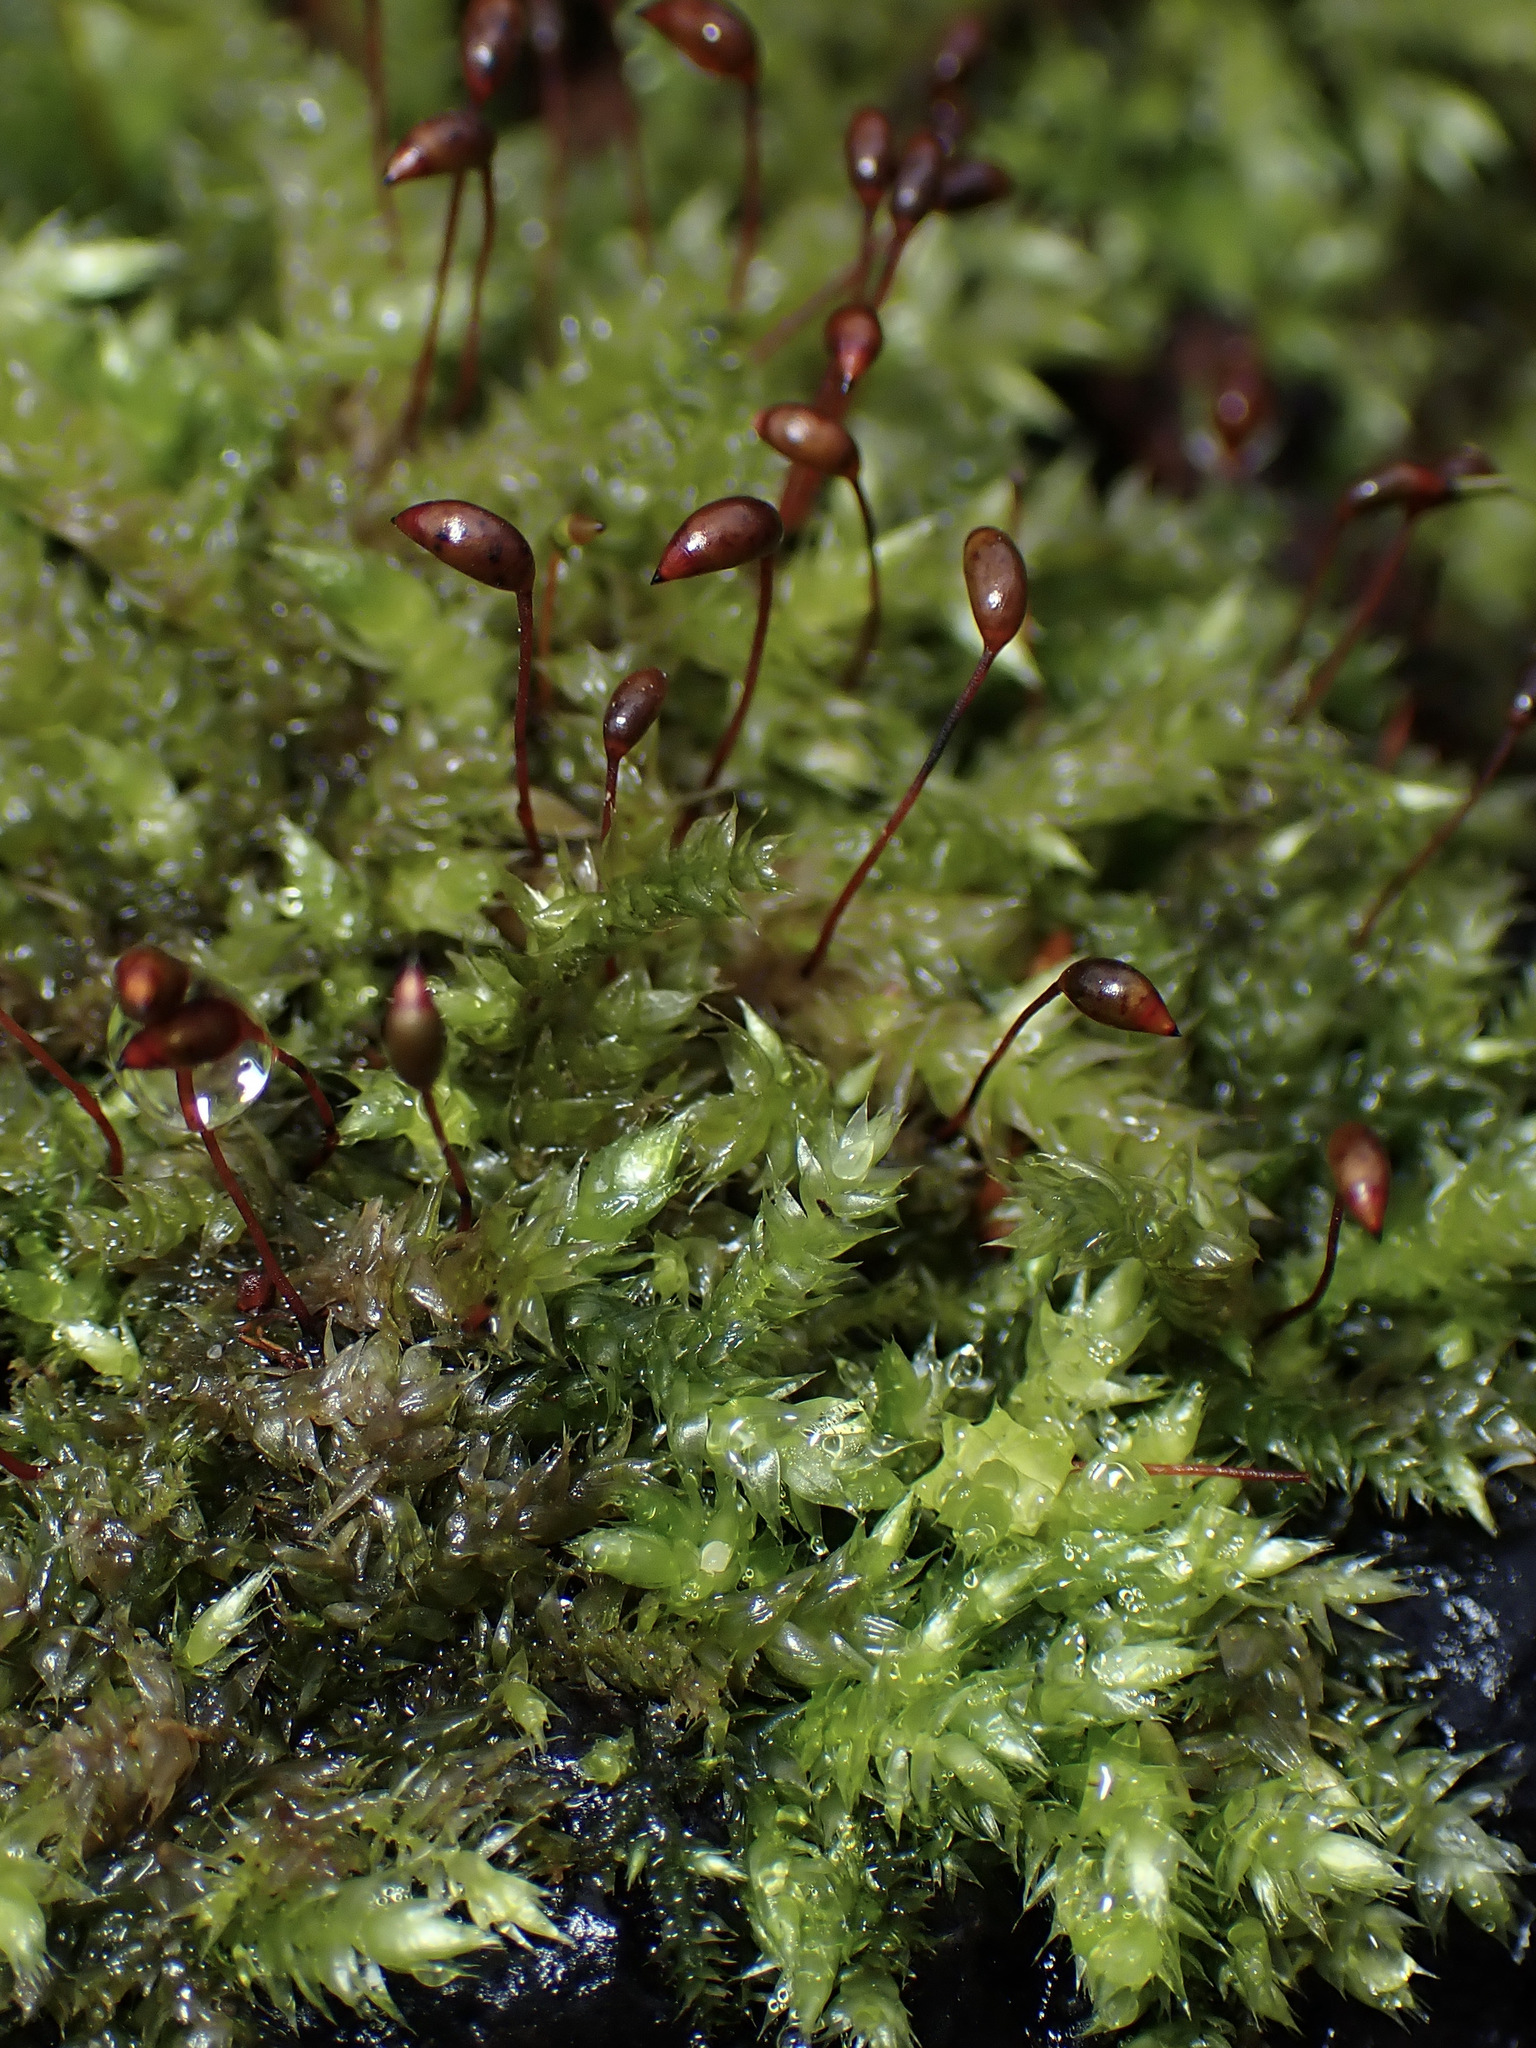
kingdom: Plantae
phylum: Bryophyta
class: Bryopsida
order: Hypnales
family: Brachytheciaceae
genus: Brachythecium
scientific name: Brachythecium rutabulum
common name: Rough-stalked feather-moss
